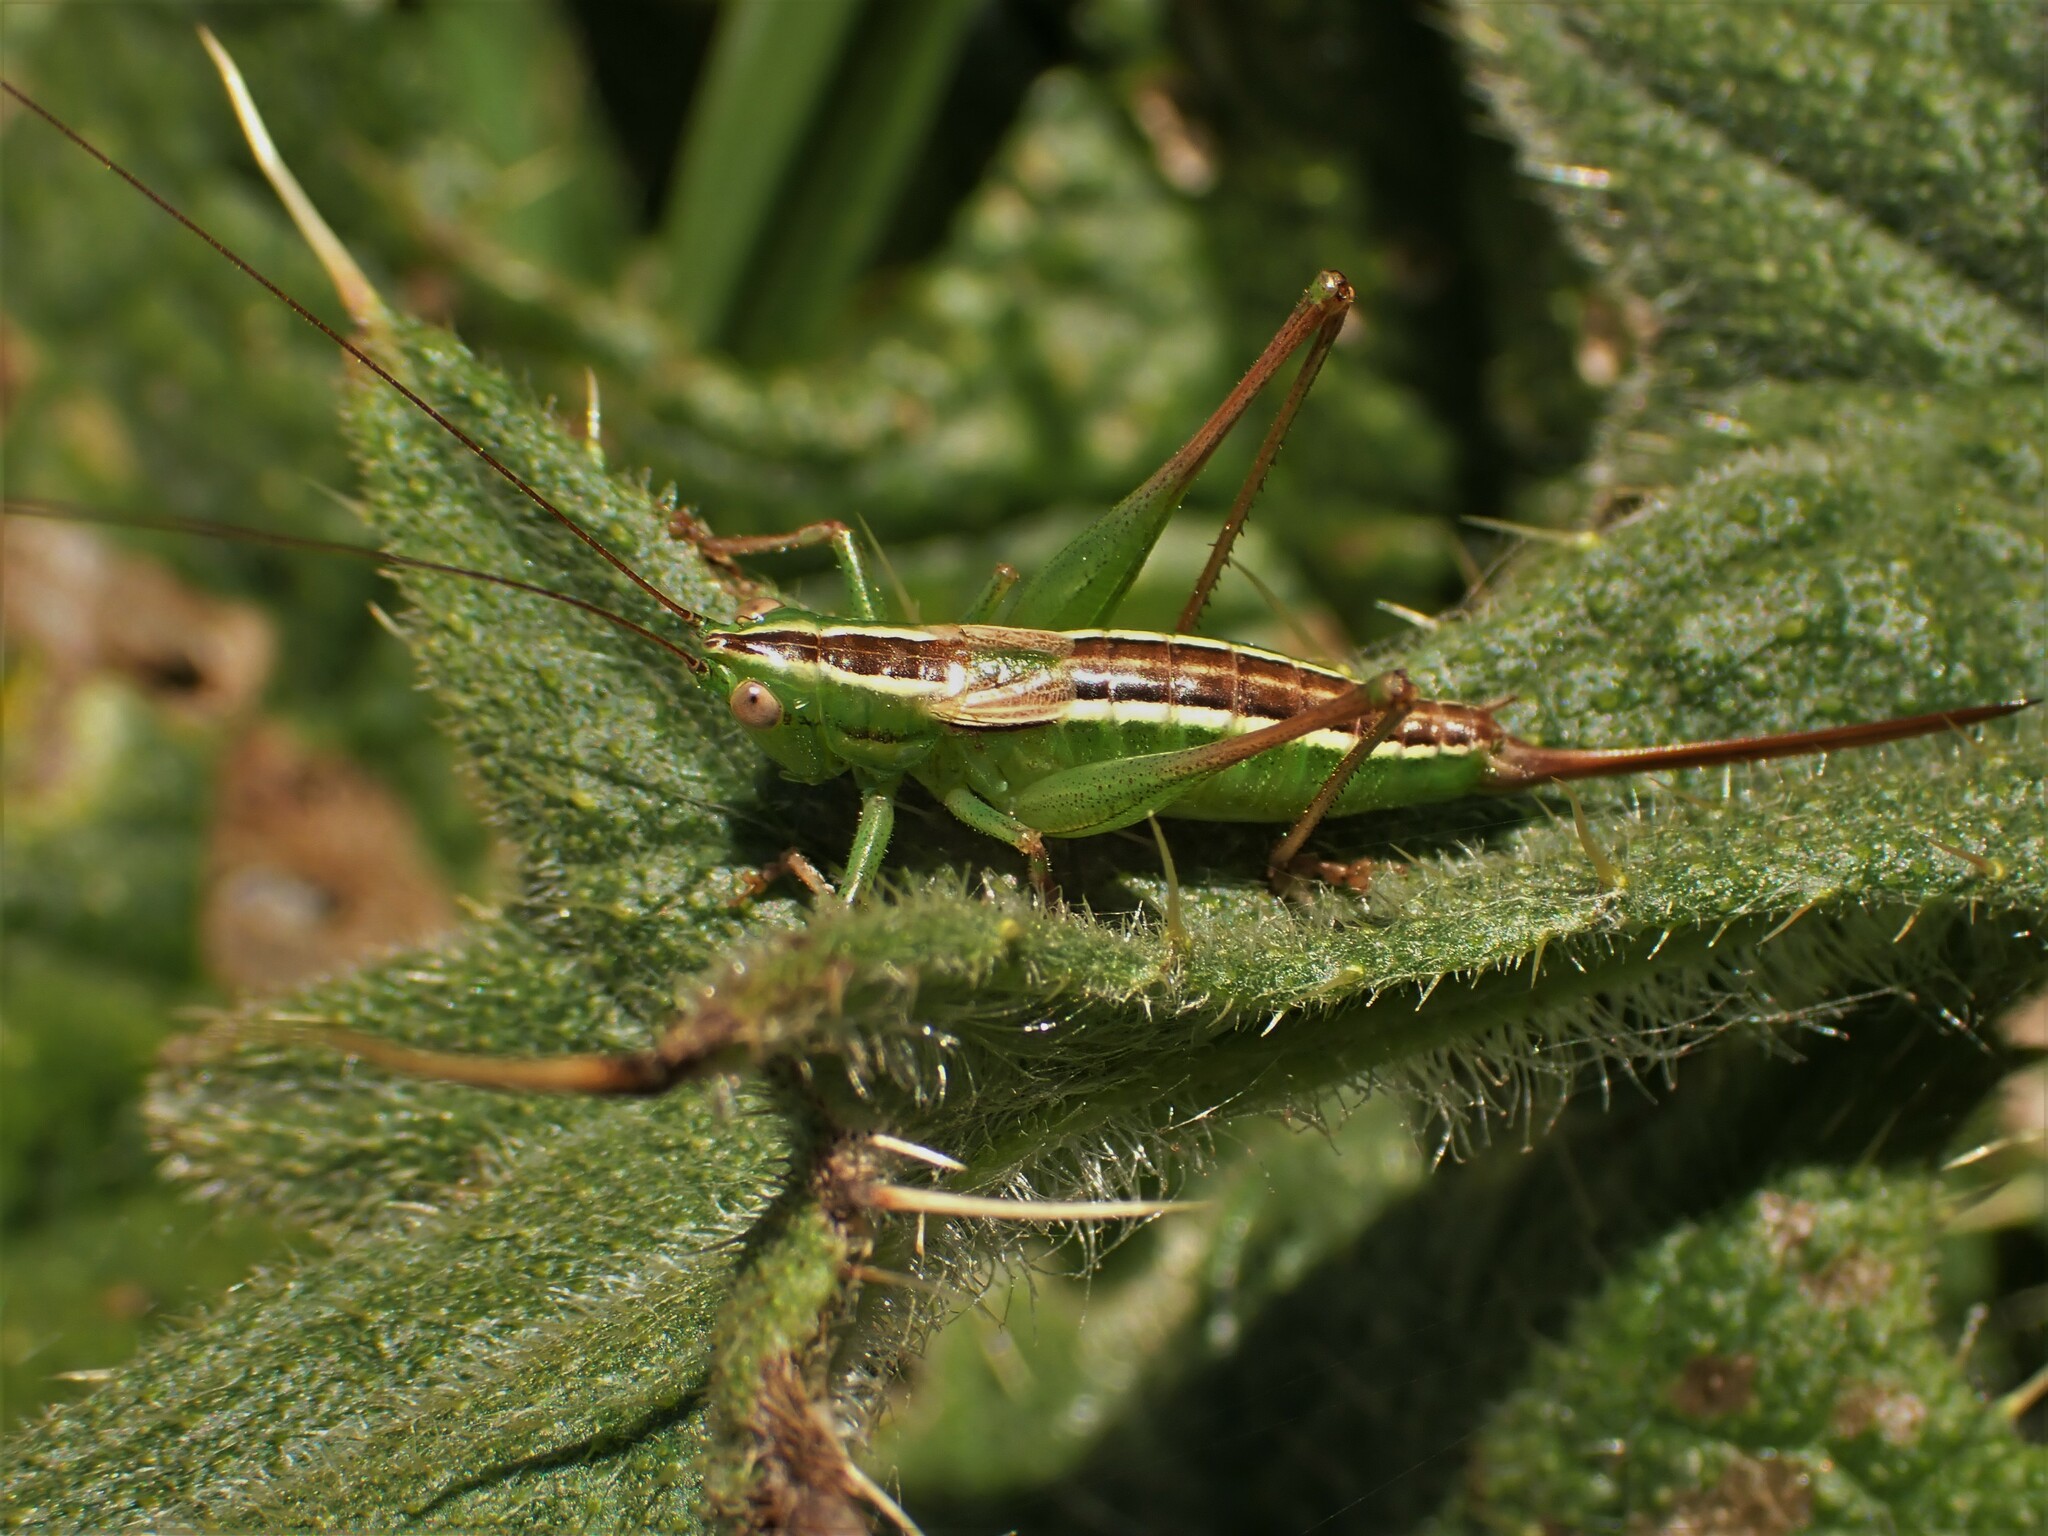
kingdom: Animalia
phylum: Arthropoda
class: Insecta
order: Orthoptera
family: Tettigoniidae
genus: Conocephalus
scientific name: Conocephalus bilineatus
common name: Small meadow katydid
